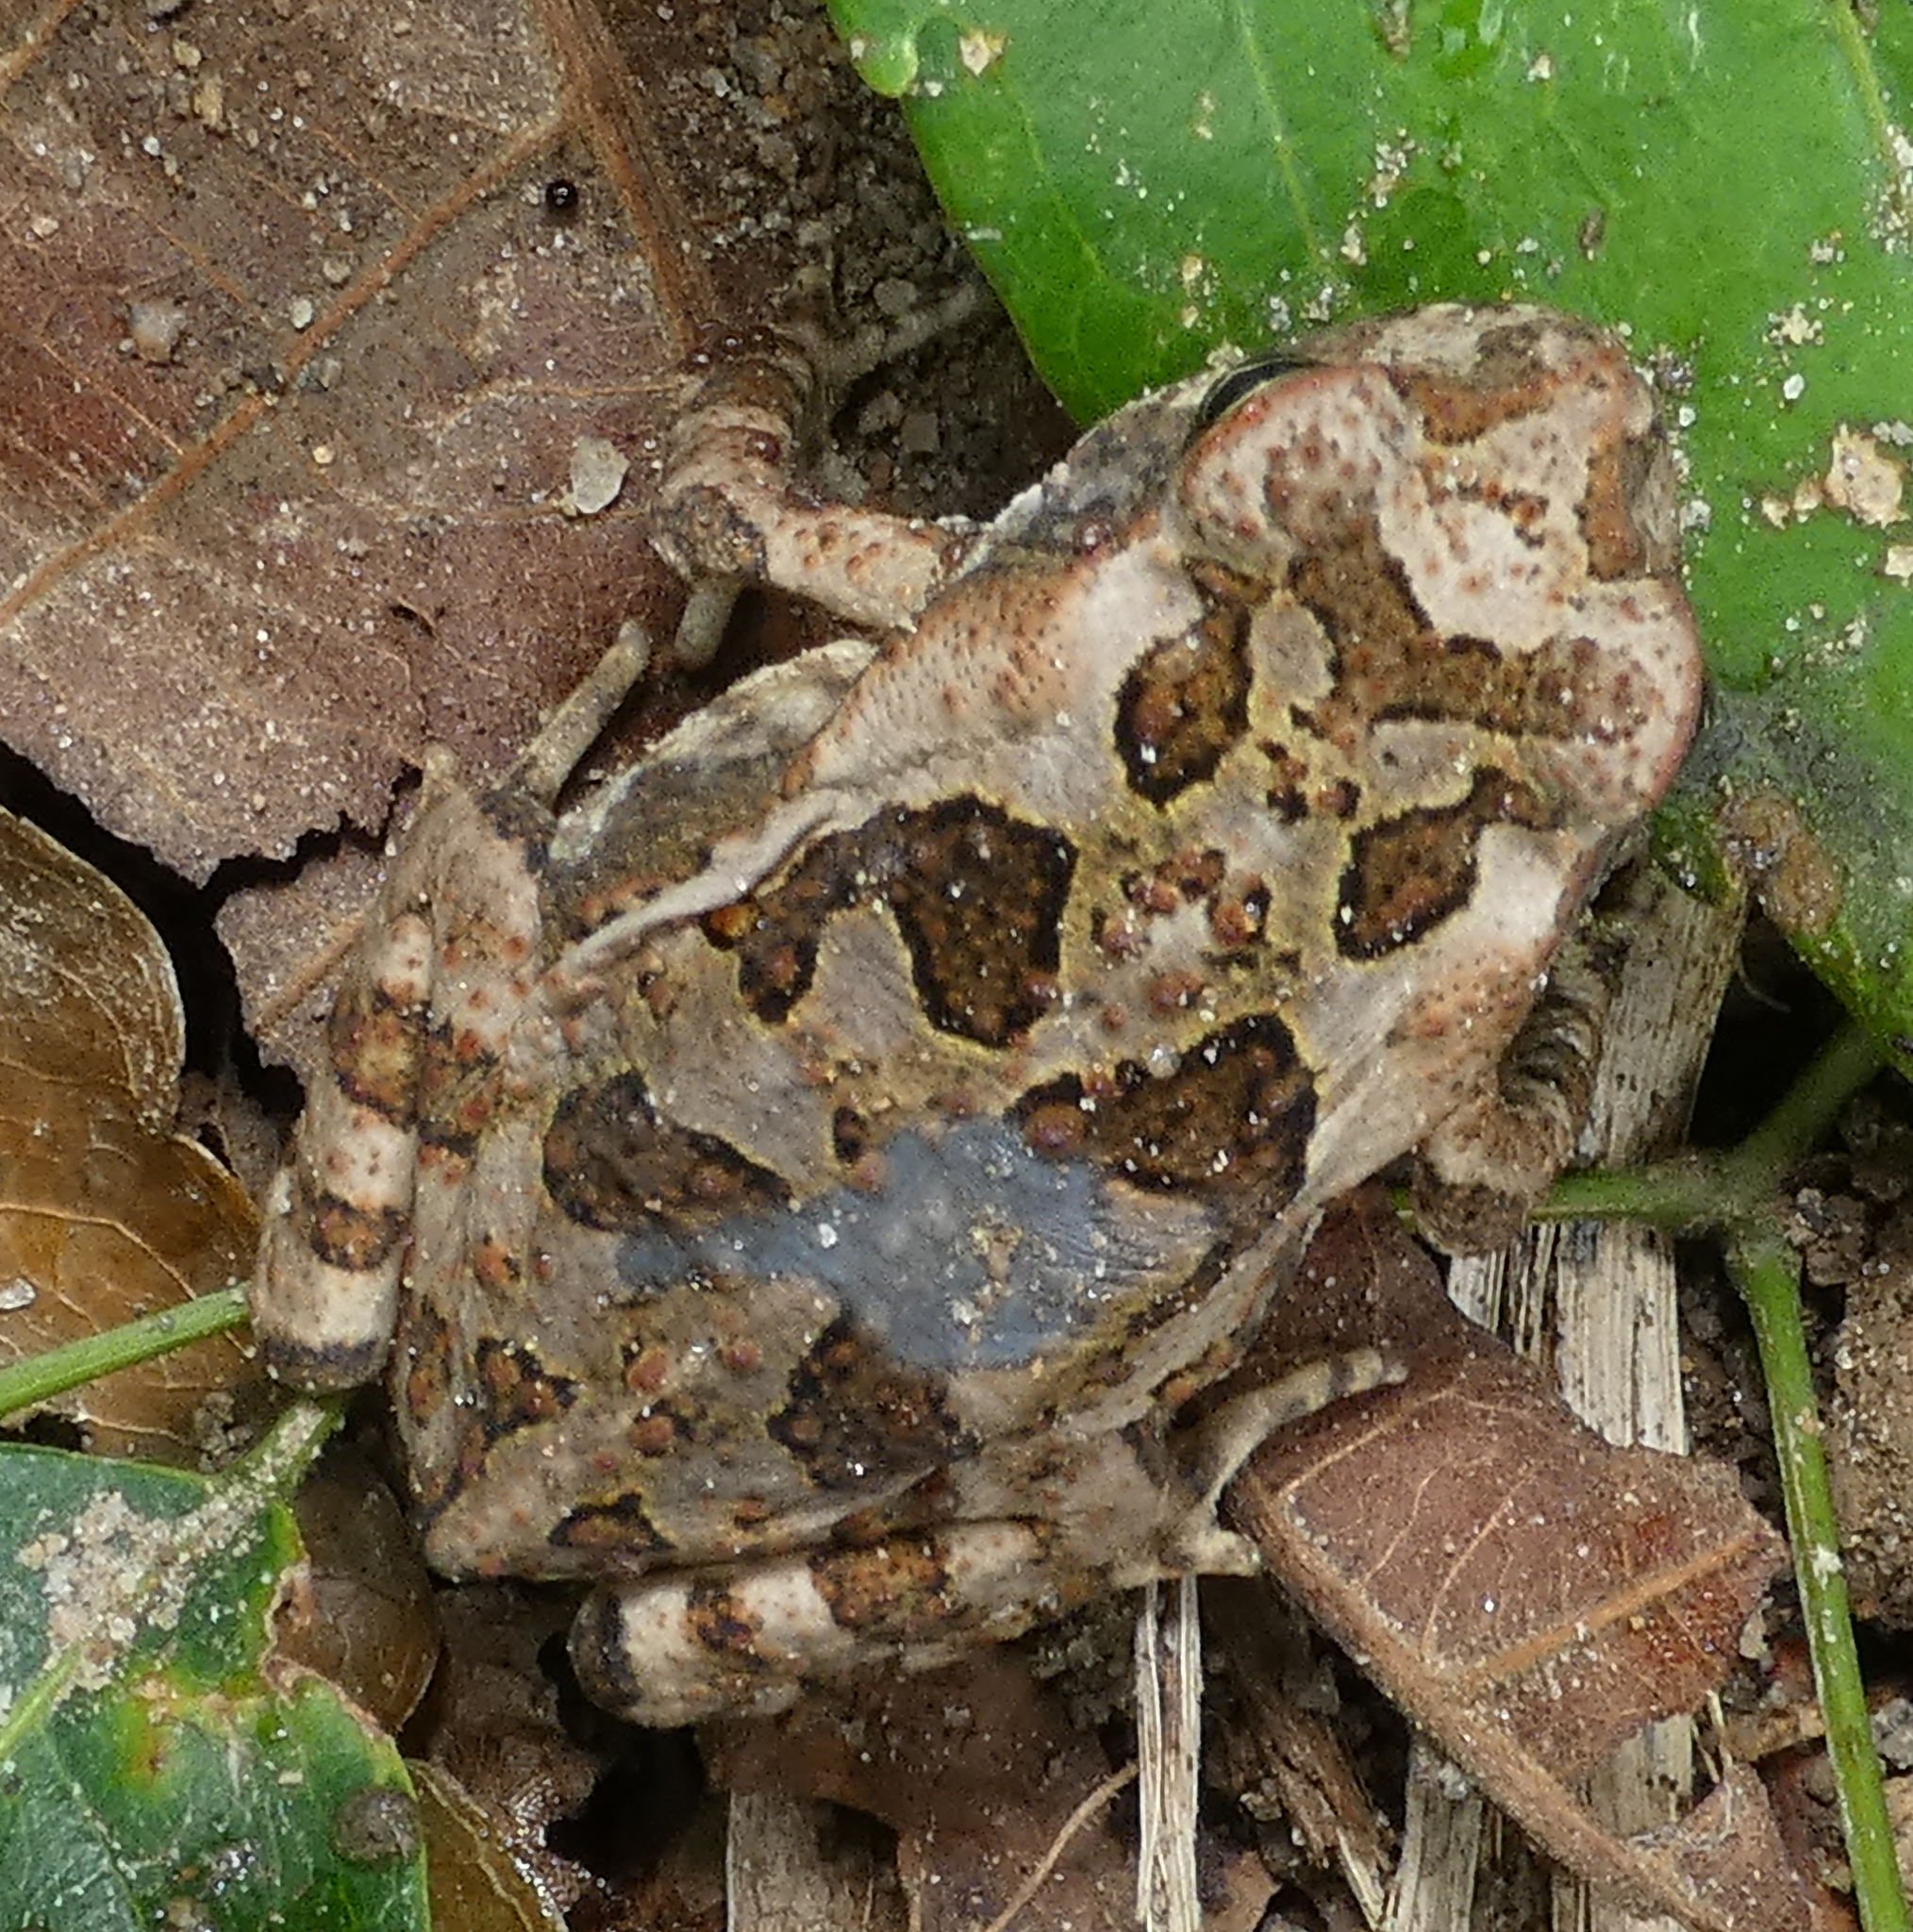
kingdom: Animalia
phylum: Chordata
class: Amphibia
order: Anura
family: Bufonidae
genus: Rhinella
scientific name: Rhinella diptycha
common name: Cope's toad
